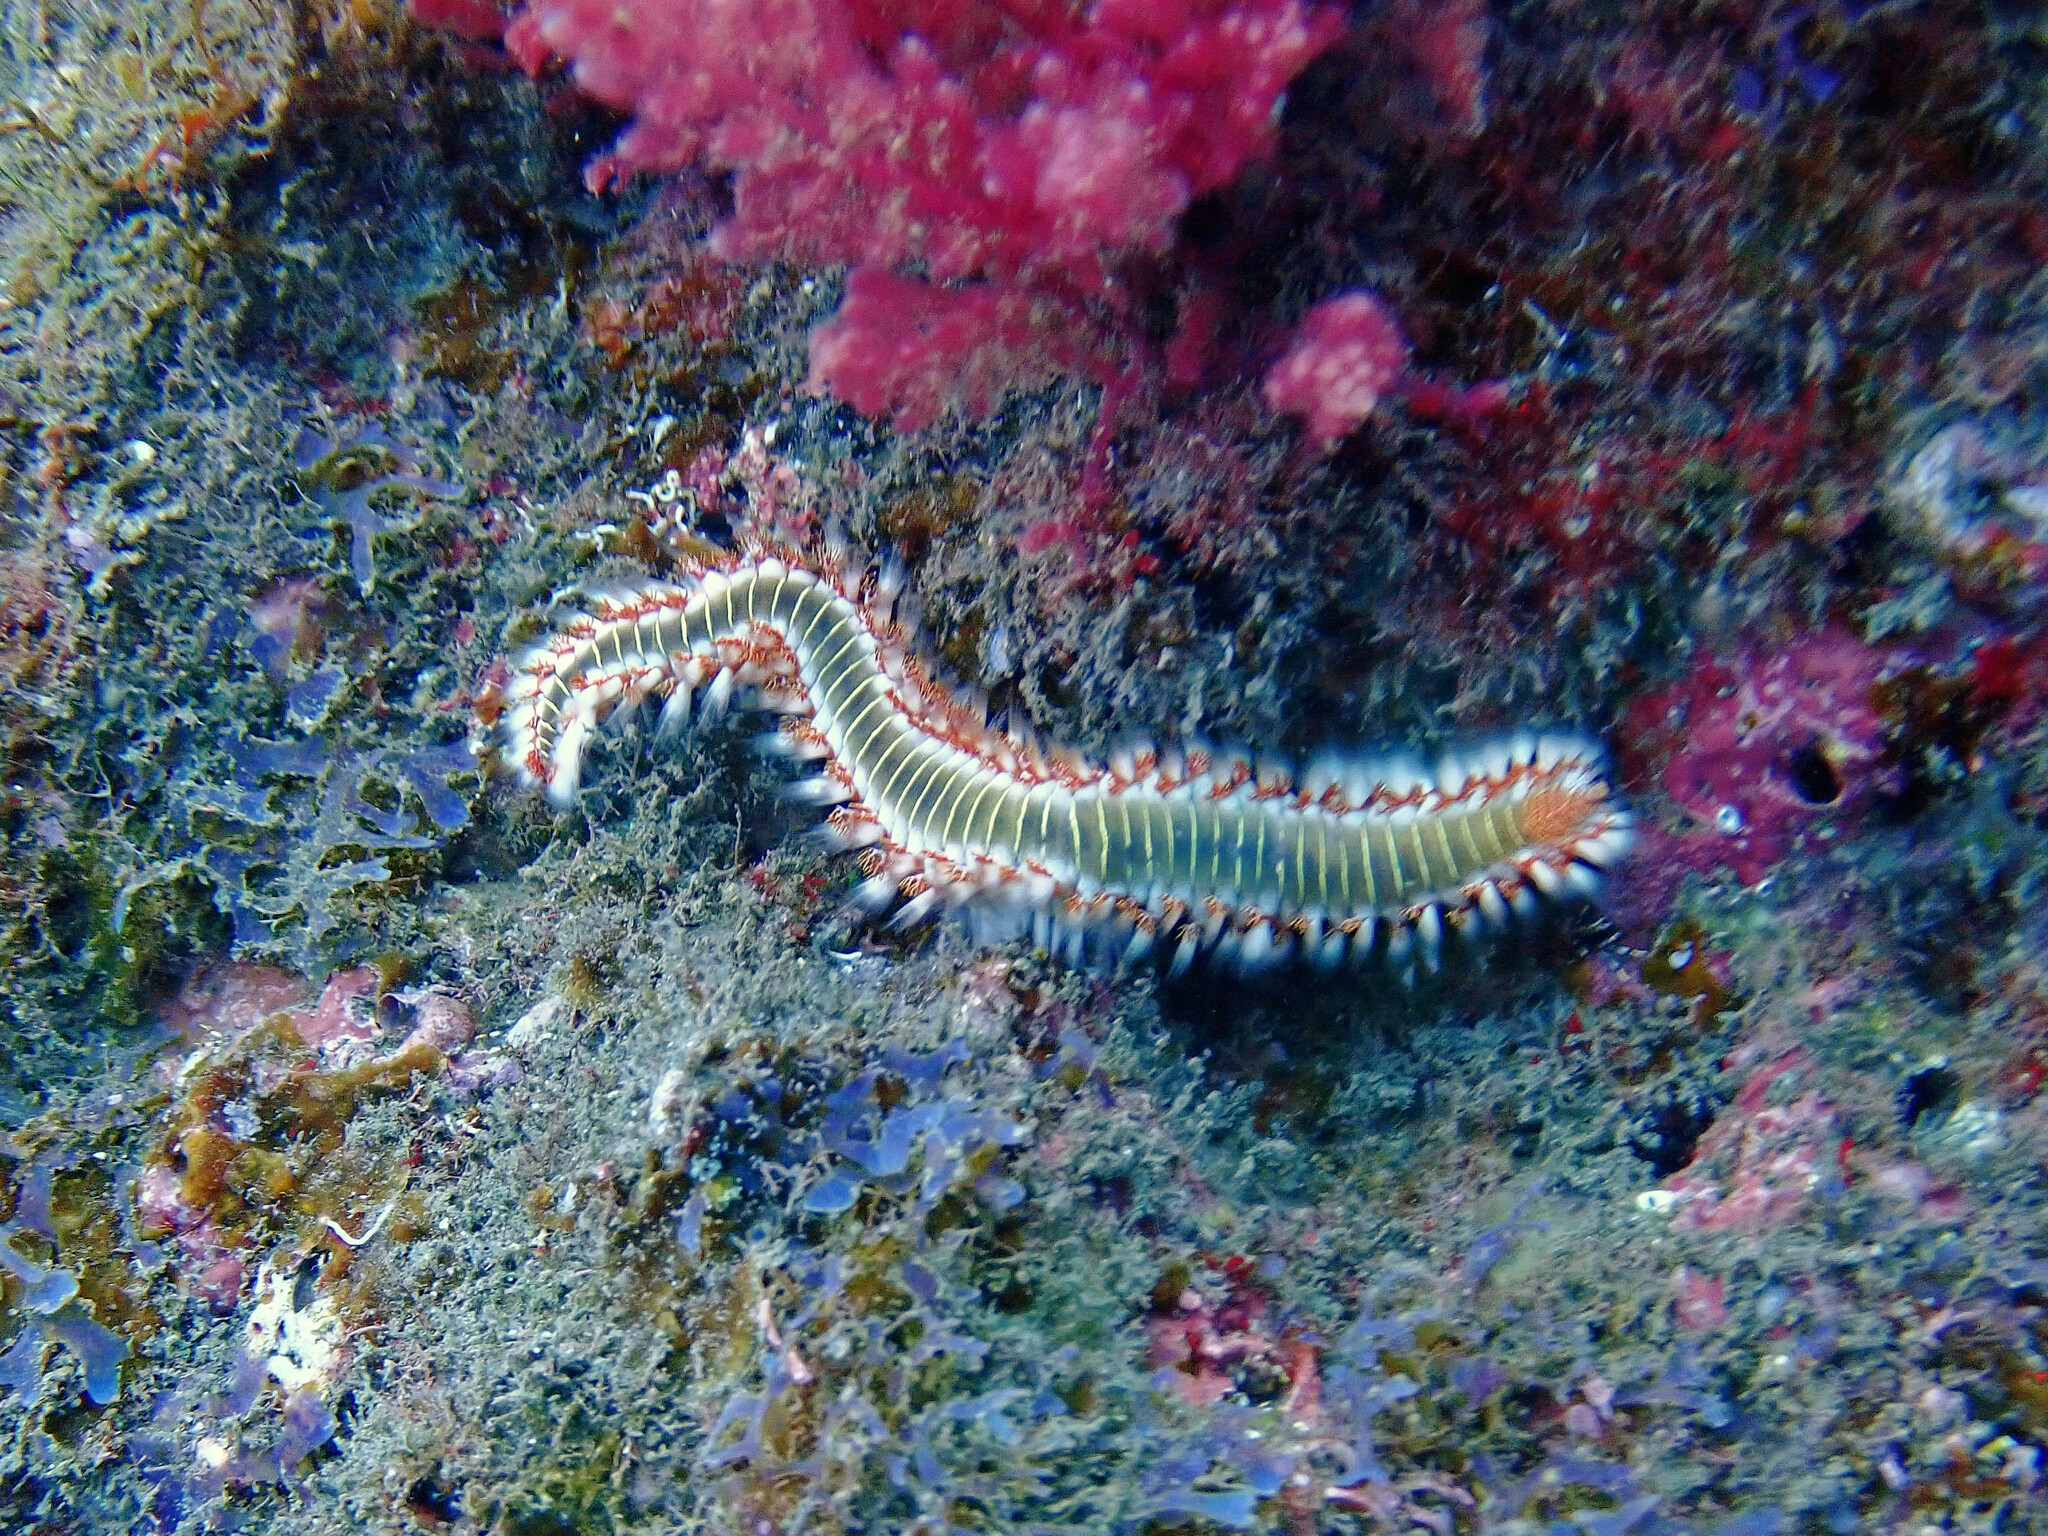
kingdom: Animalia
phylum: Annelida
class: Polychaeta
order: Amphinomida
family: Amphinomidae
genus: Hermodice
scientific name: Hermodice carunculata
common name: Bearded fireworm
